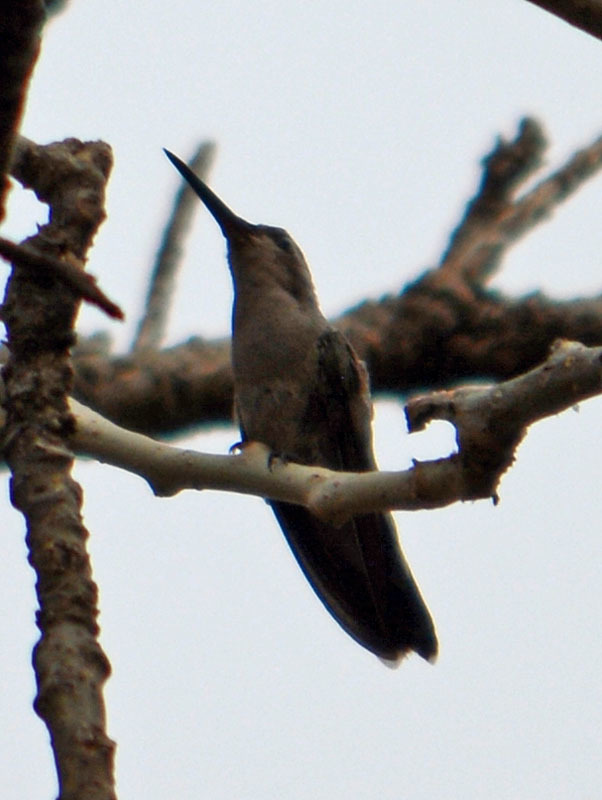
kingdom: Animalia
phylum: Chordata
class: Aves
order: Apodiformes
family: Trochilidae
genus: Cynanthus
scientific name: Cynanthus latirostris
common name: Broad-billed hummingbird
